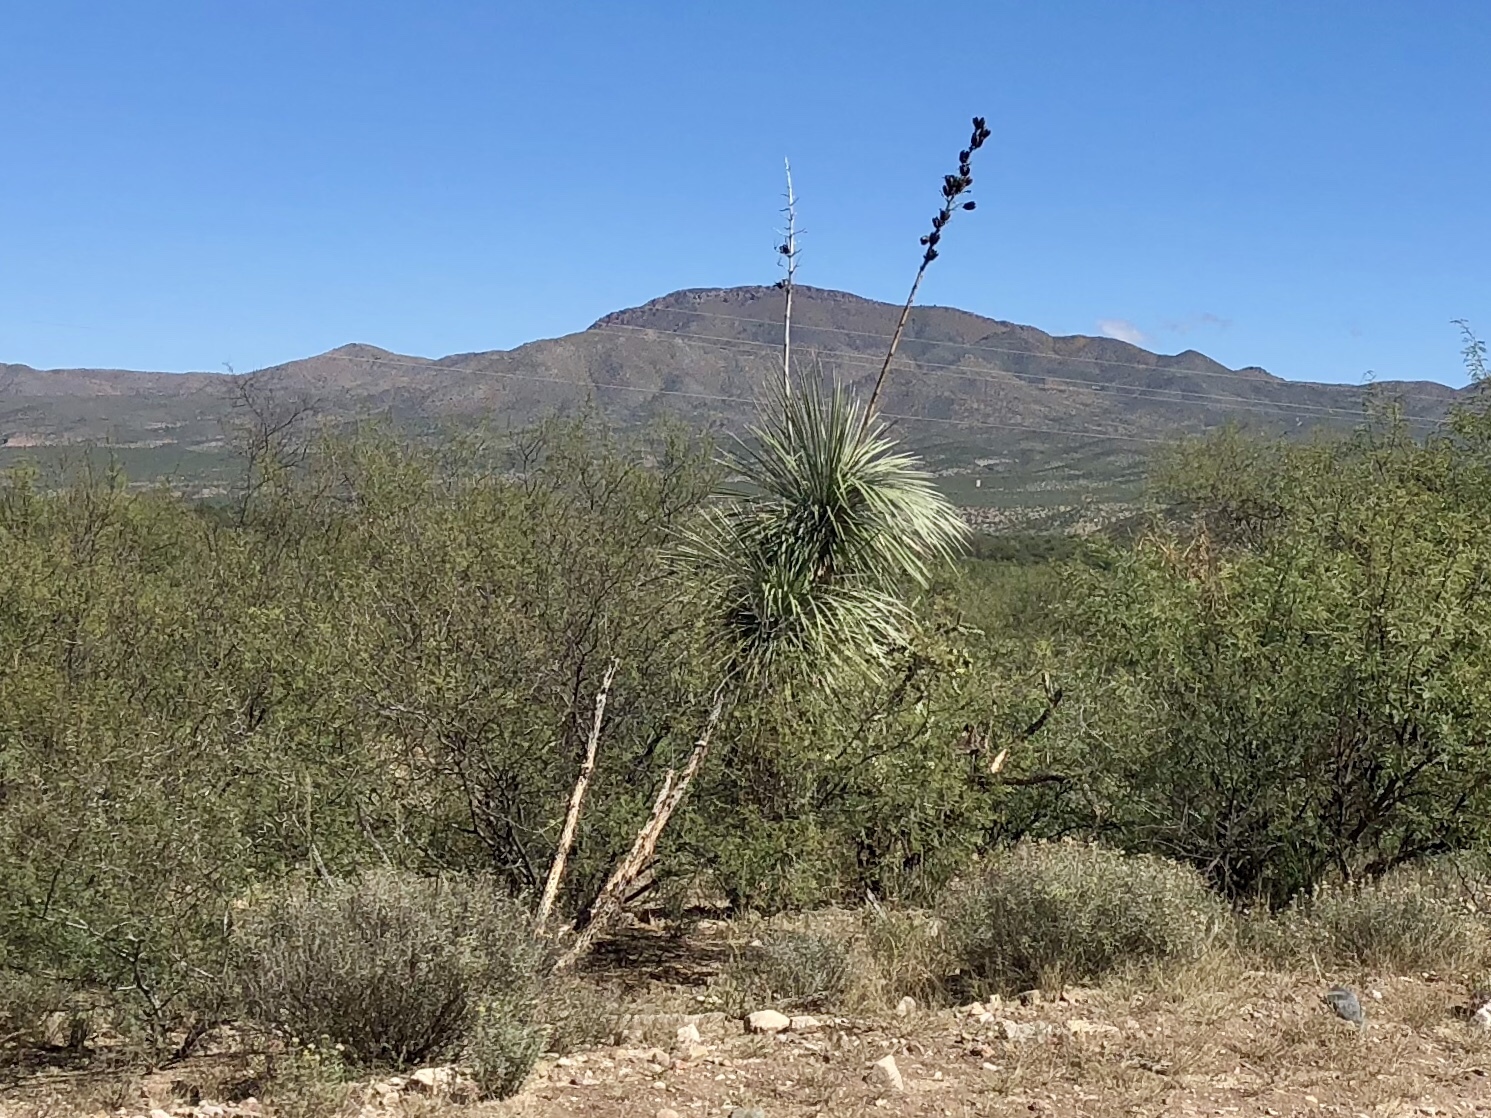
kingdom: Plantae
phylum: Tracheophyta
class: Liliopsida
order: Asparagales
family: Asparagaceae
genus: Yucca
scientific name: Yucca elata
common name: Palmella
